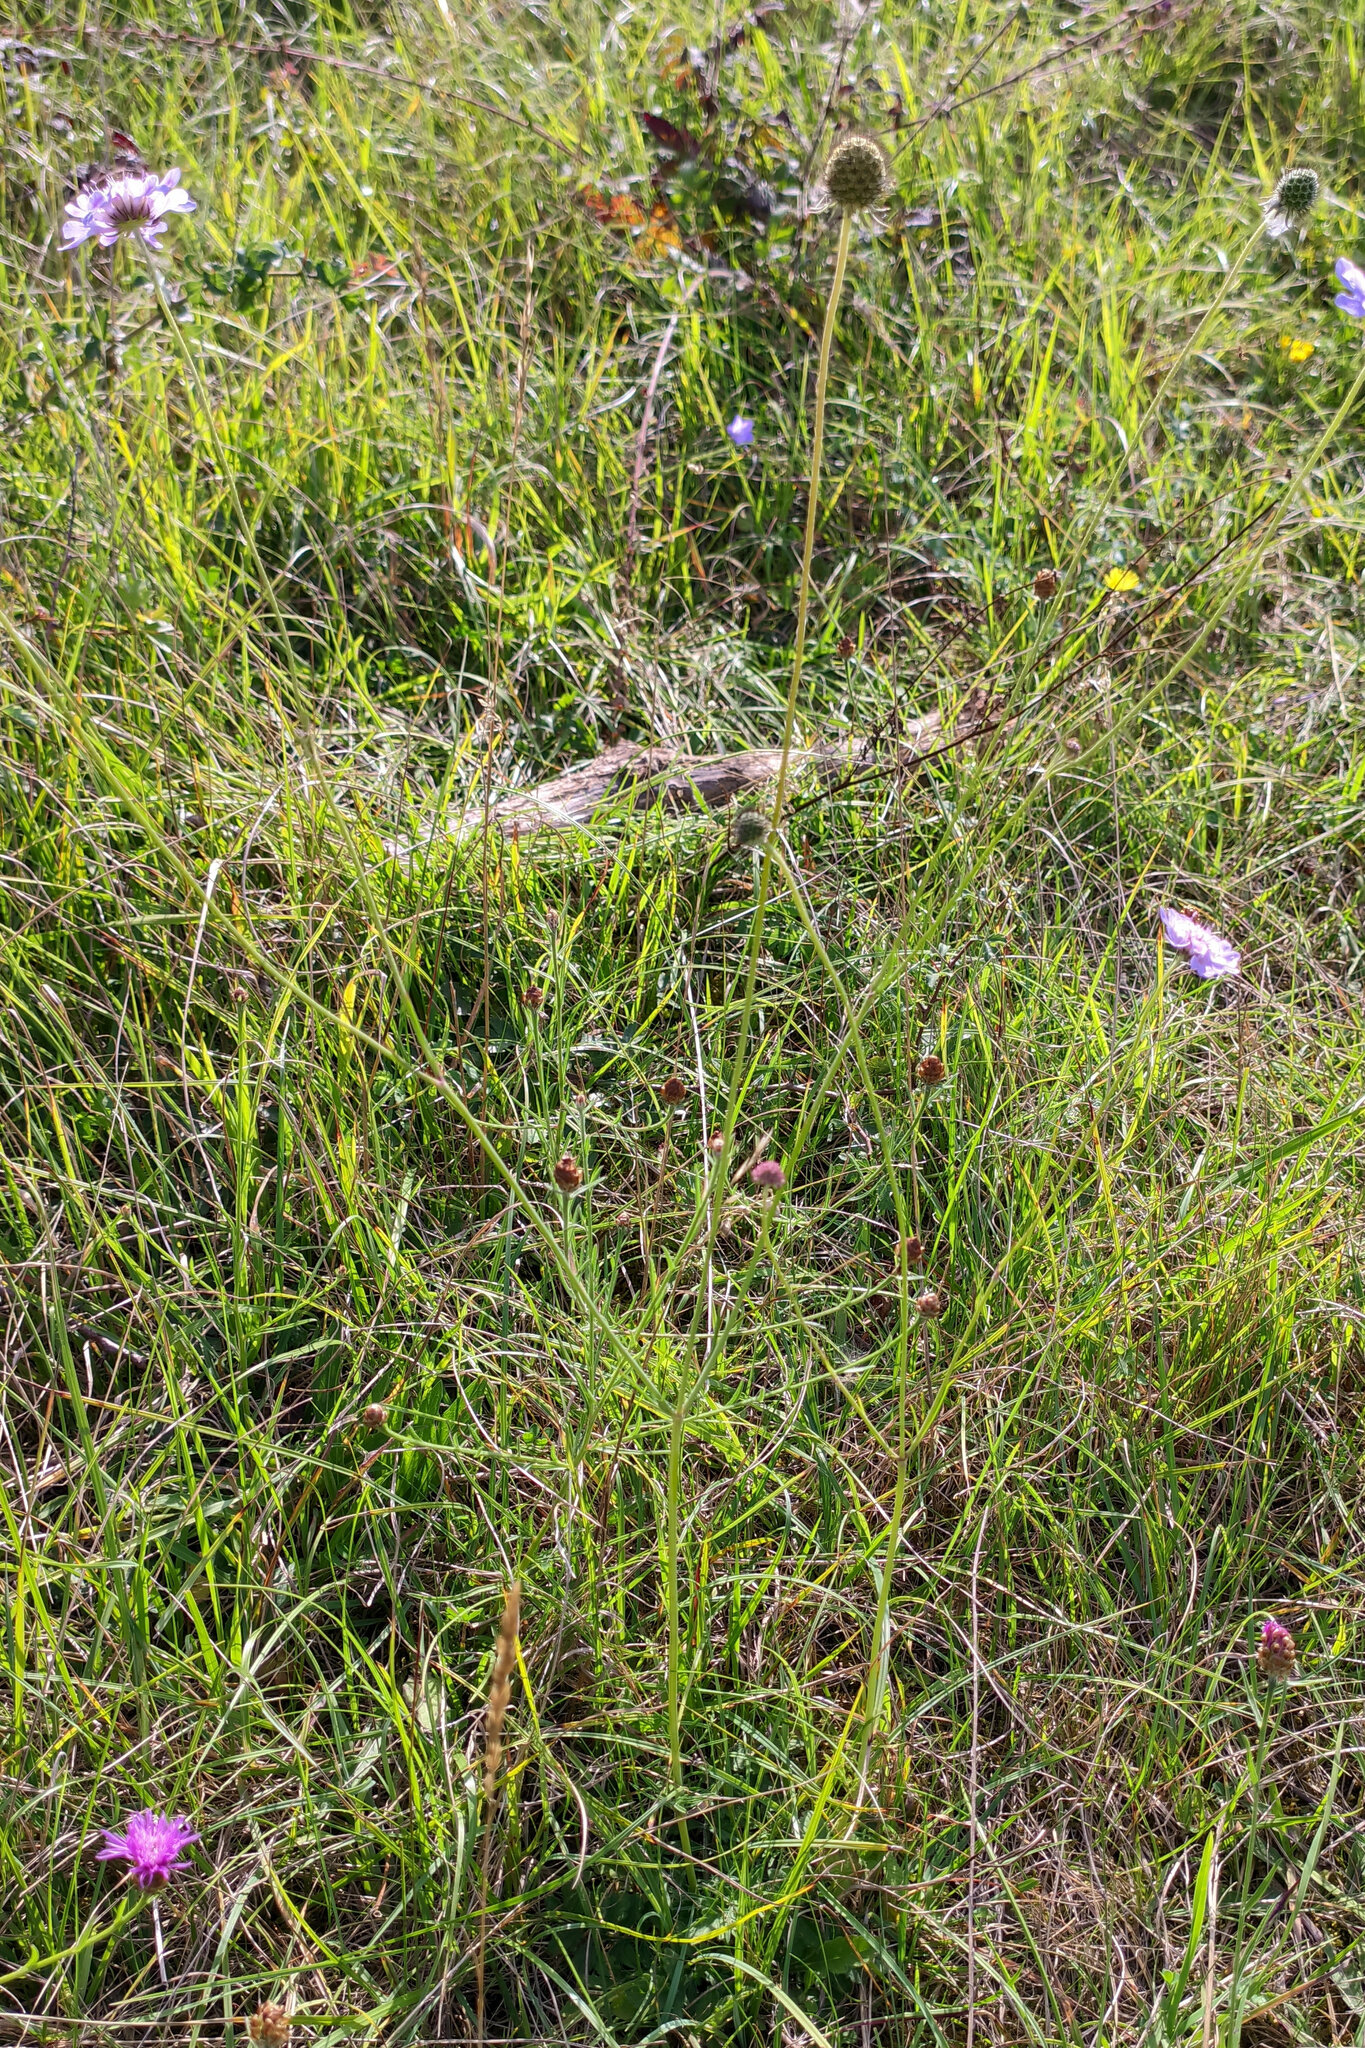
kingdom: Plantae
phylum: Tracheophyta
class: Magnoliopsida
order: Dipsacales
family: Caprifoliaceae
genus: Scabiosa
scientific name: Scabiosa columbaria
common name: Small scabious
